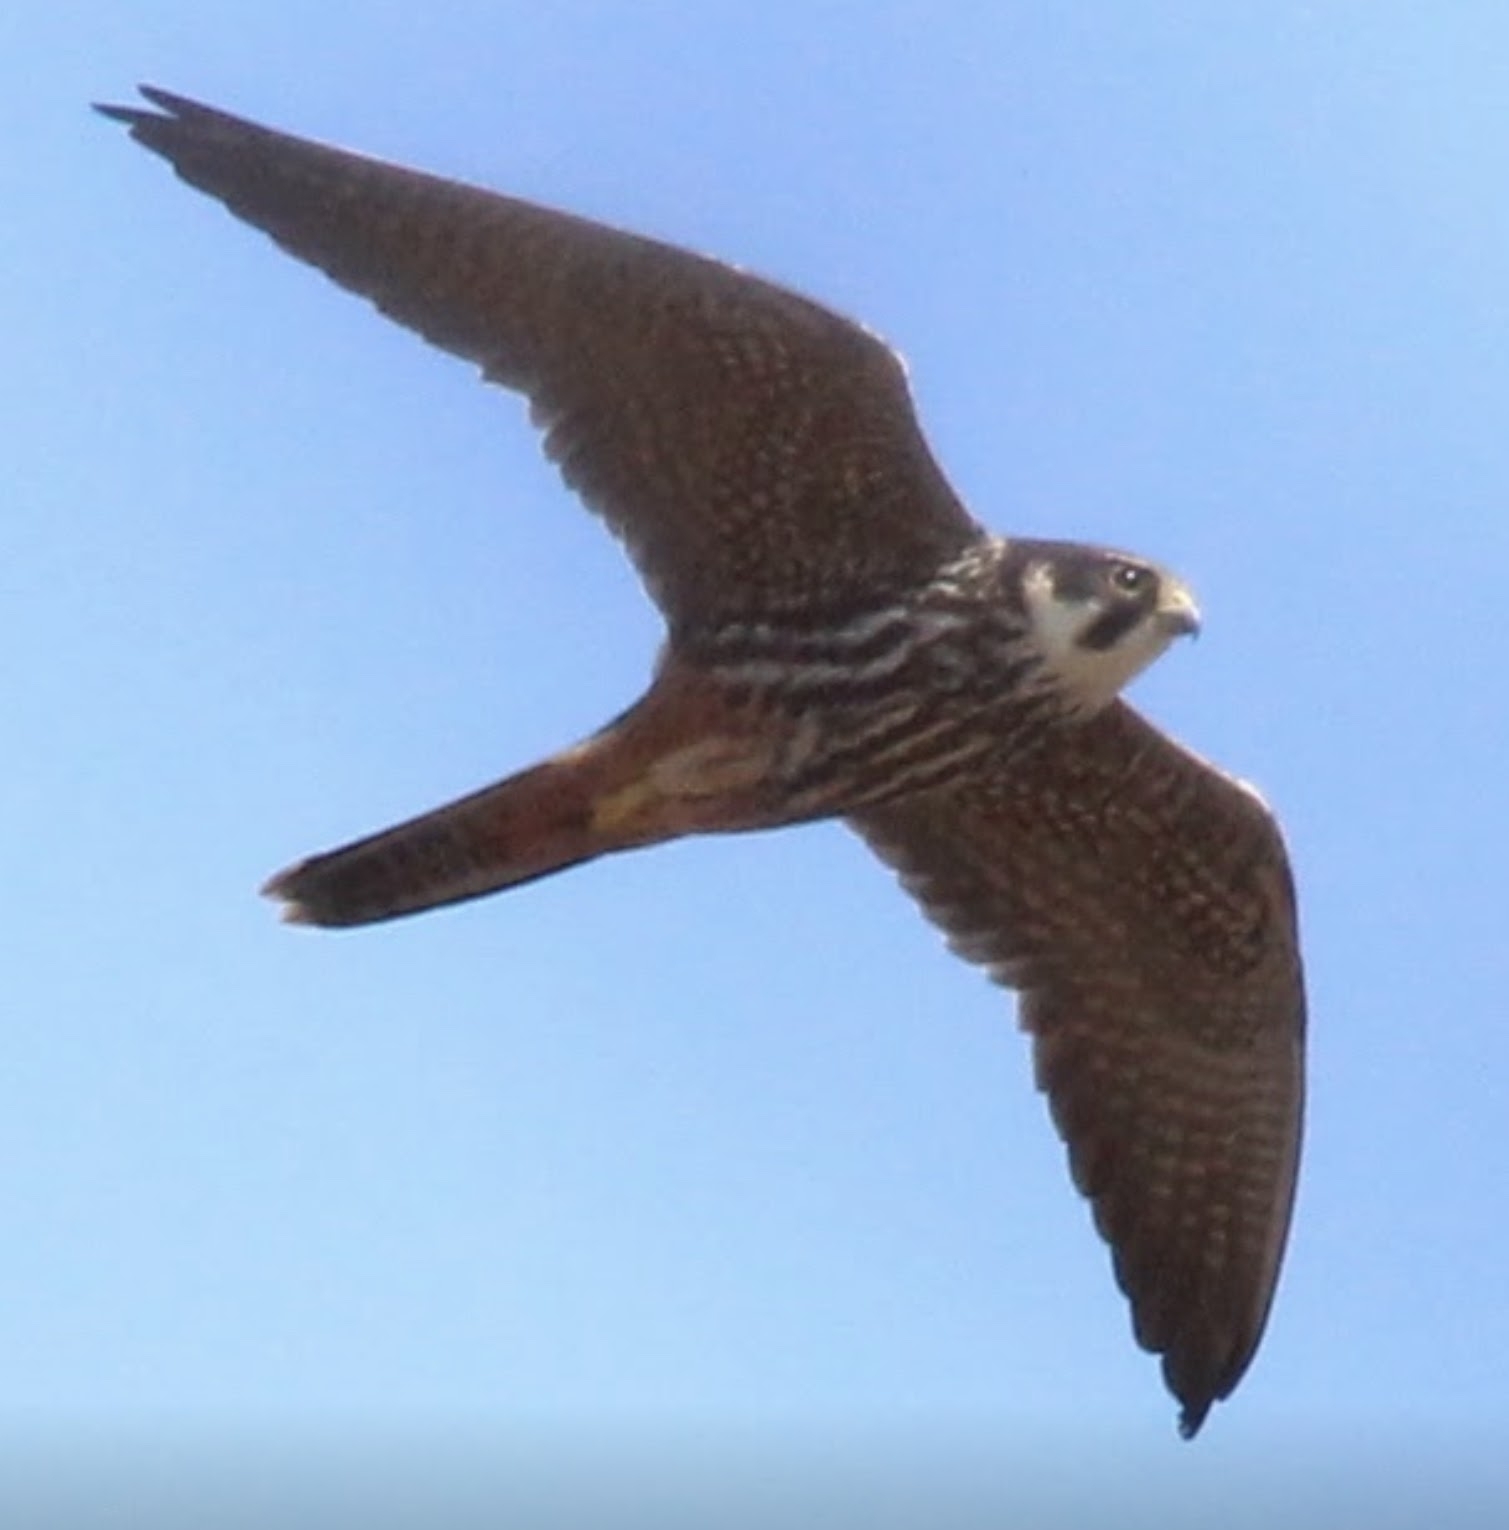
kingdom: Animalia
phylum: Chordata
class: Aves
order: Falconiformes
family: Falconidae
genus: Falco
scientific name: Falco subbuteo
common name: Eurasian hobby
